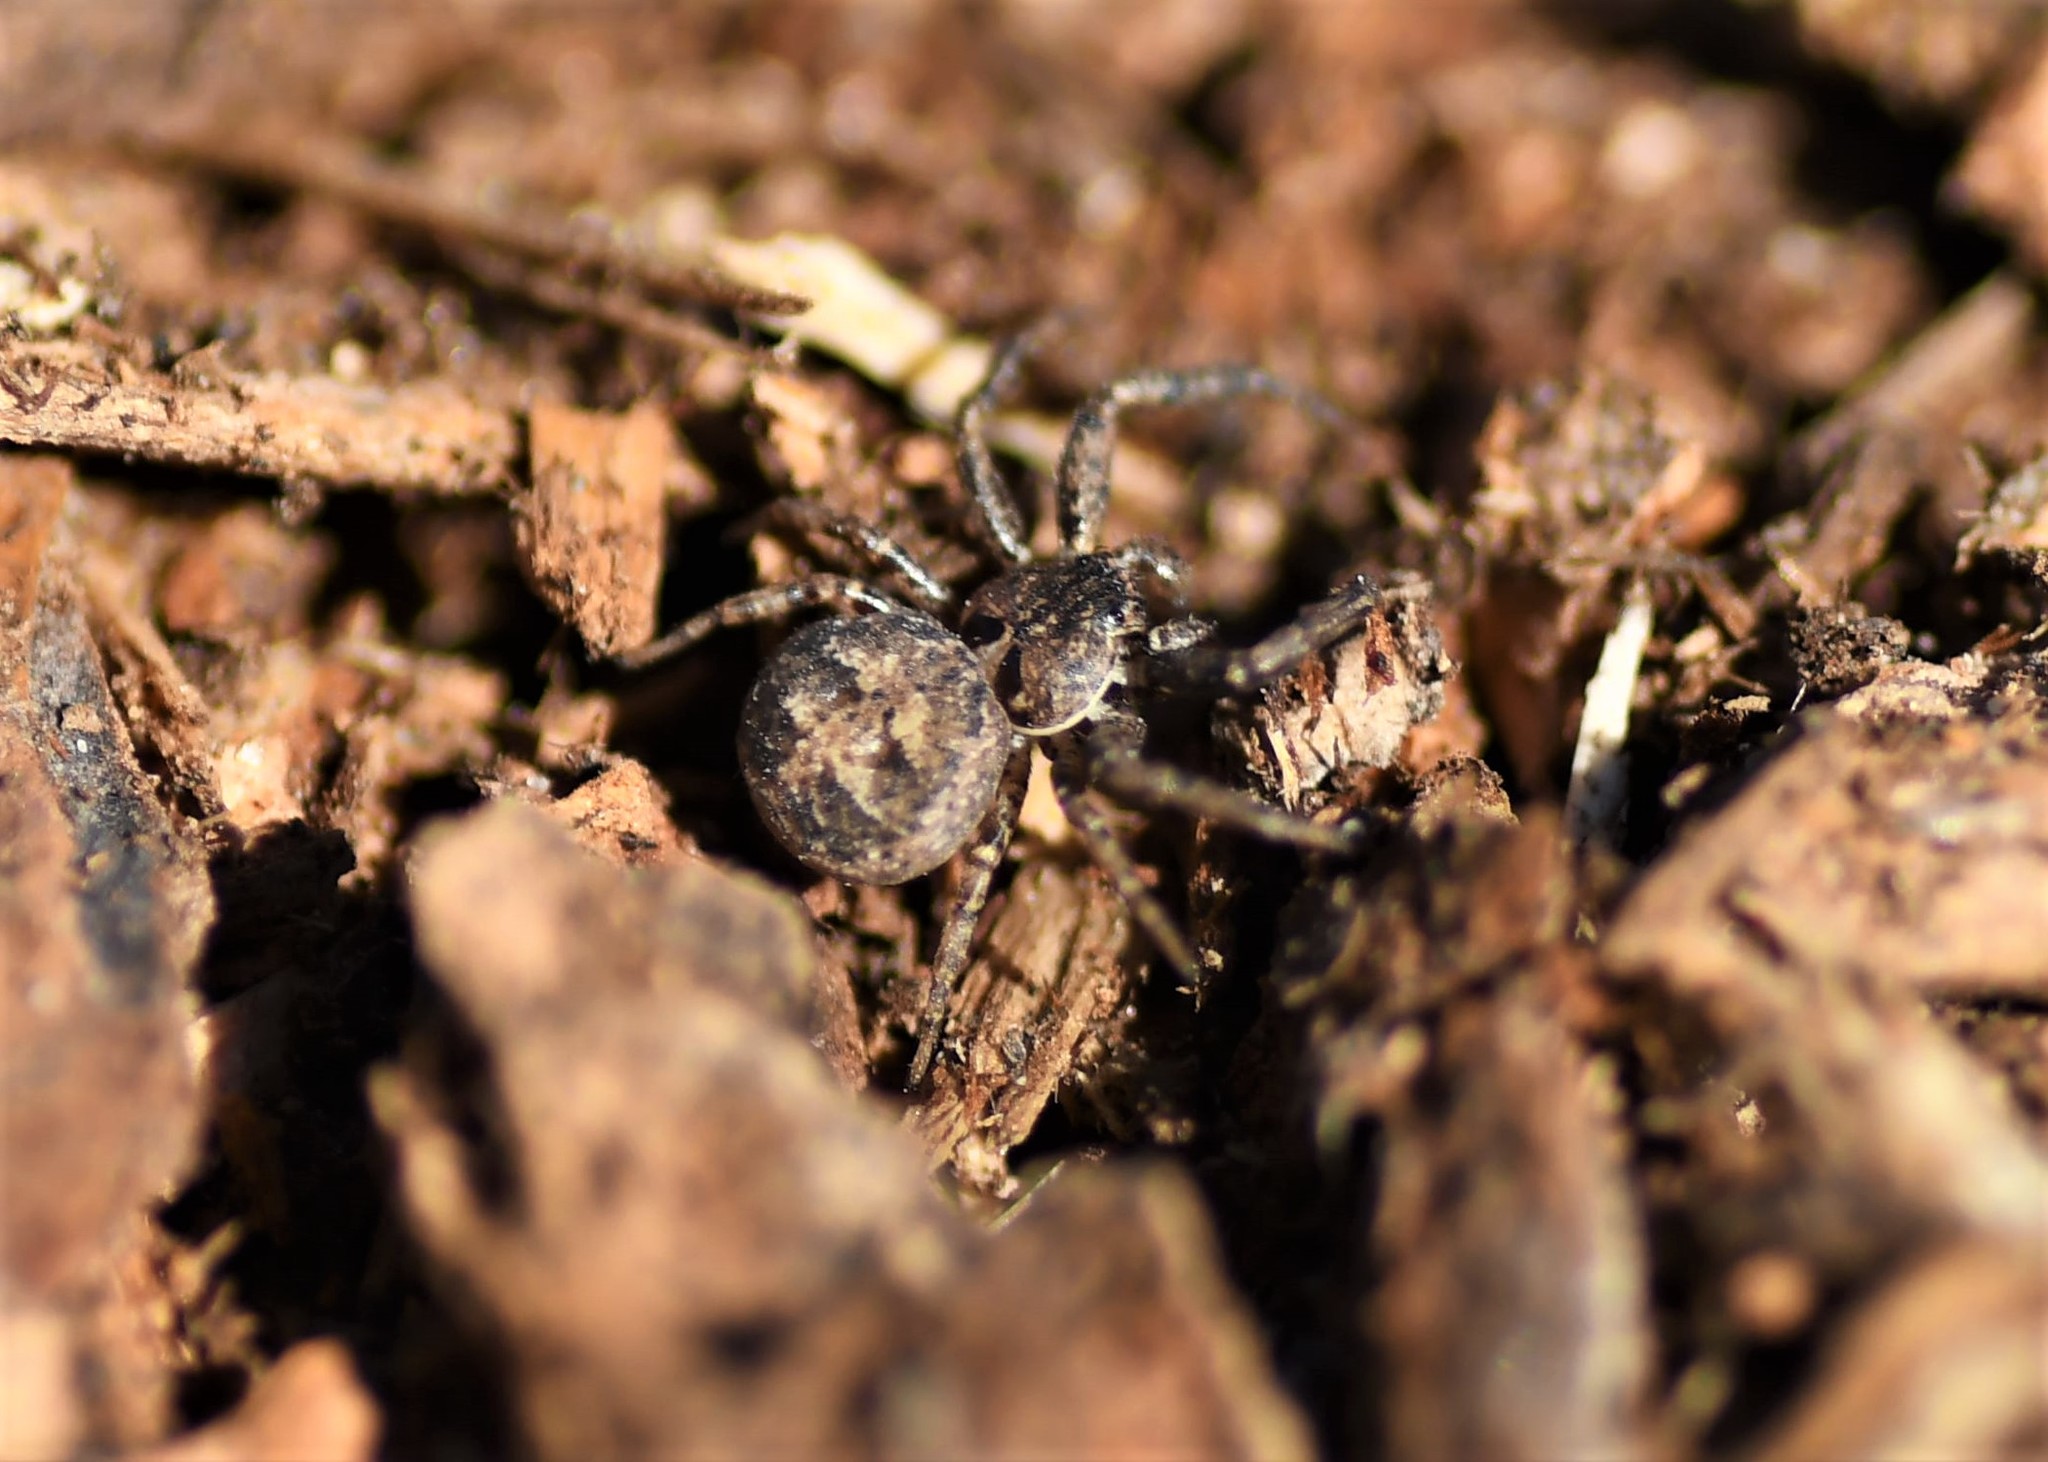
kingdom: Animalia
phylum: Arthropoda
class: Arachnida
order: Araneae
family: Thomisidae
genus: Bassaniana
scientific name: Bassaniana utahensis
